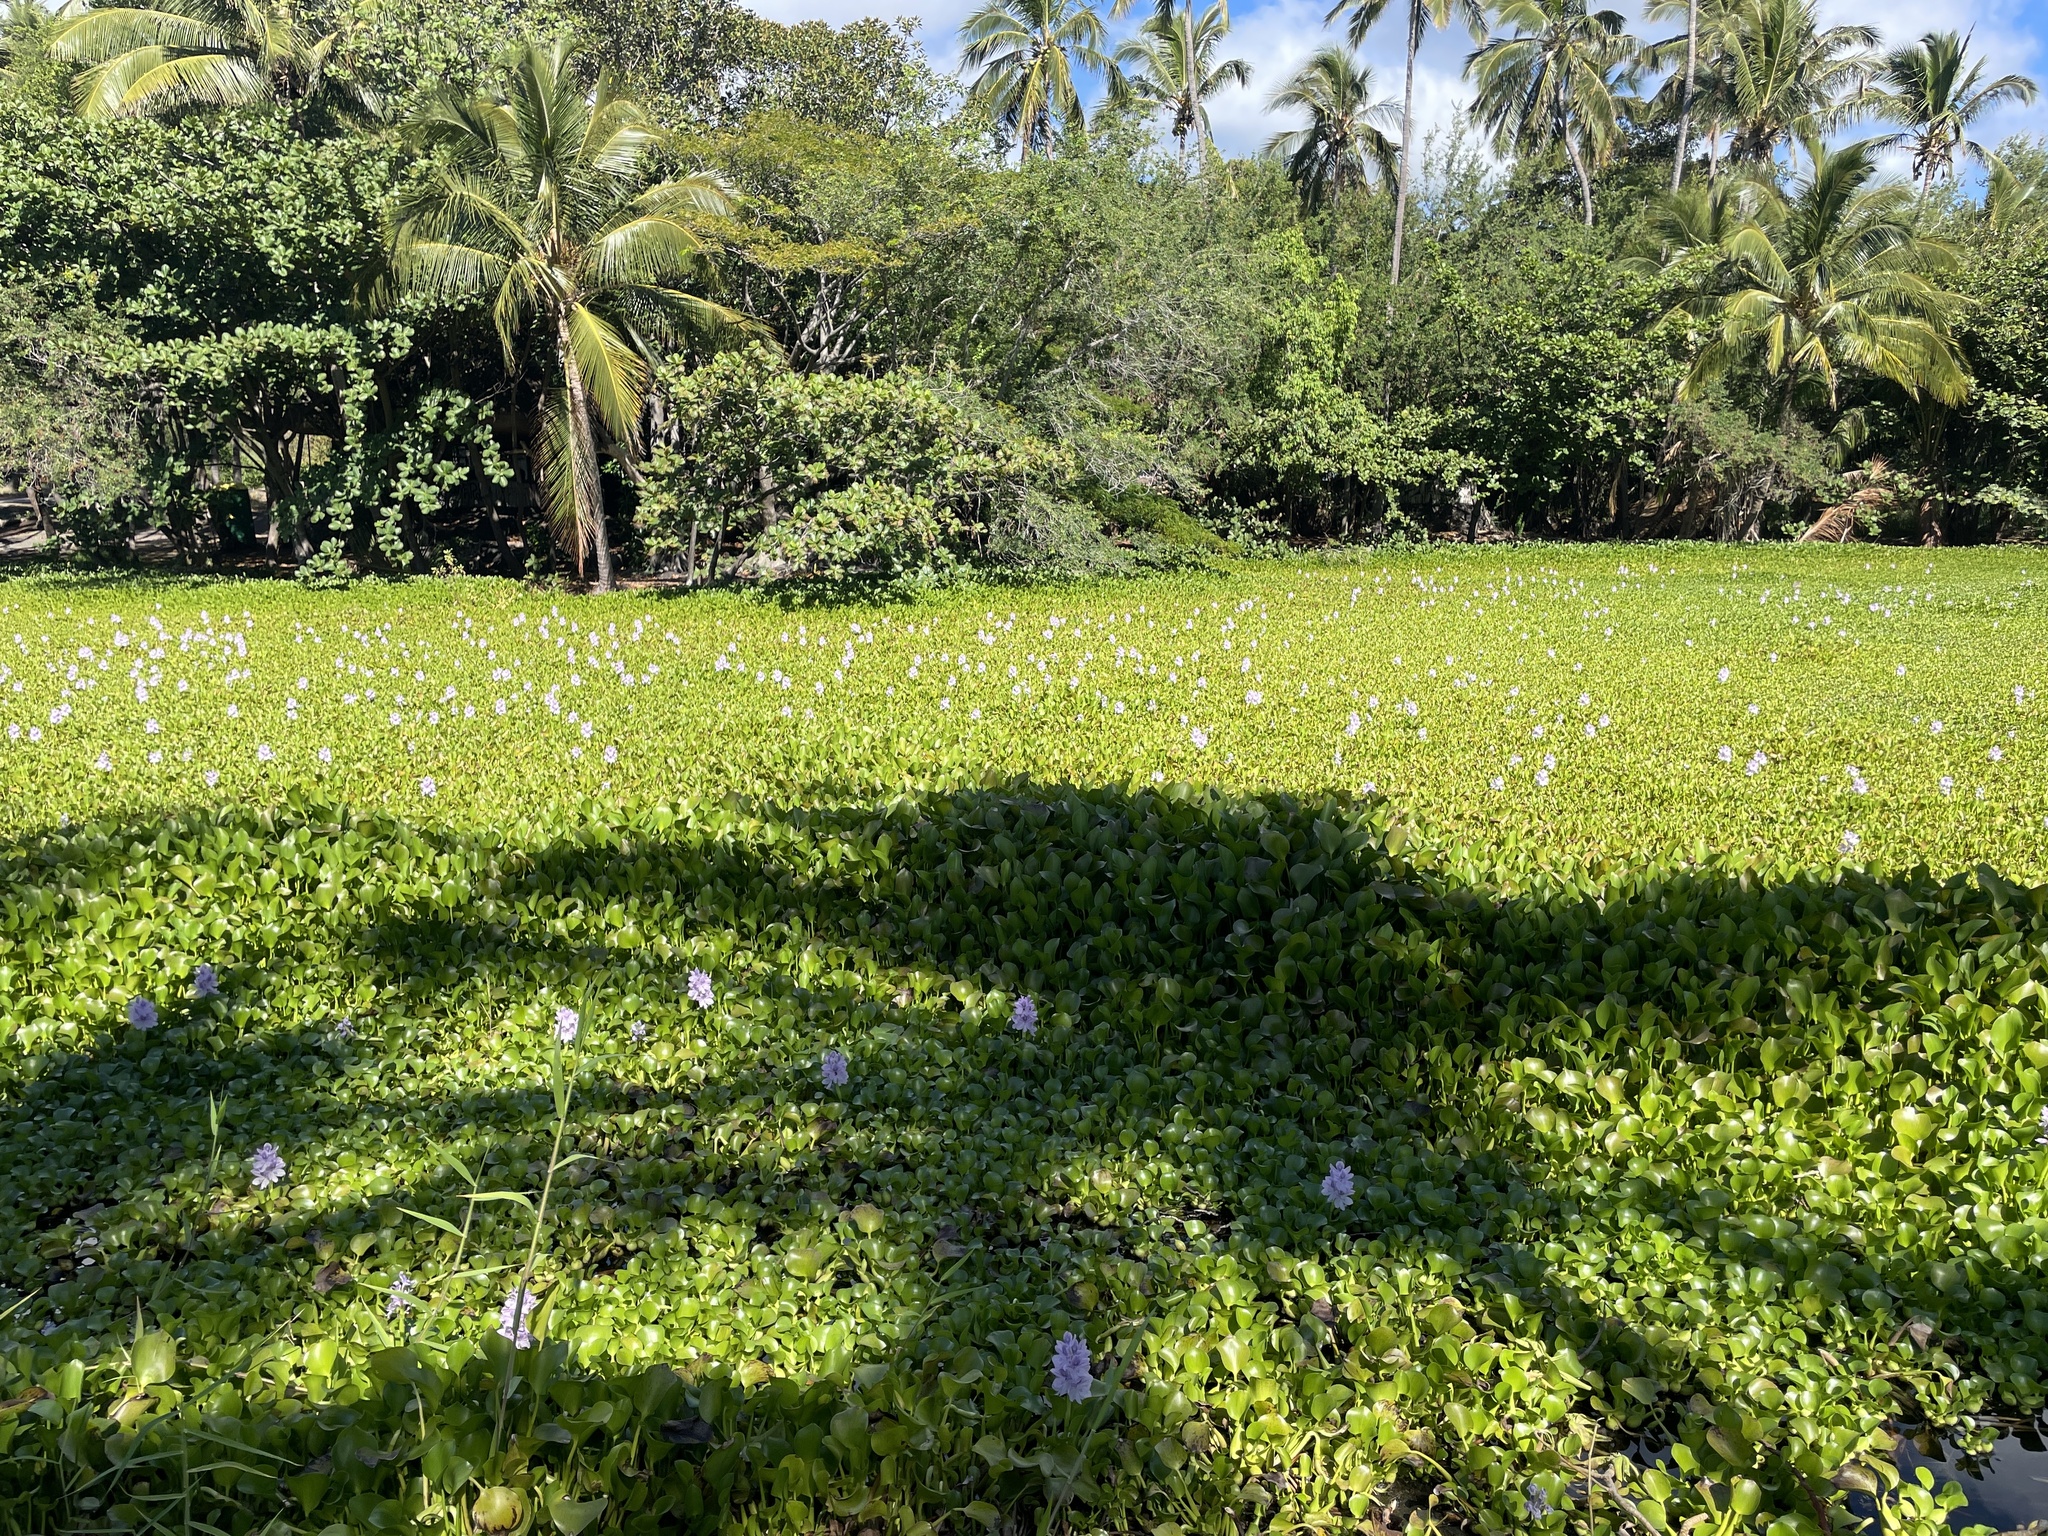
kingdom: Plantae
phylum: Tracheophyta
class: Liliopsida
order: Commelinales
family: Pontederiaceae
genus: Pontederia
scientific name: Pontederia crassipes
